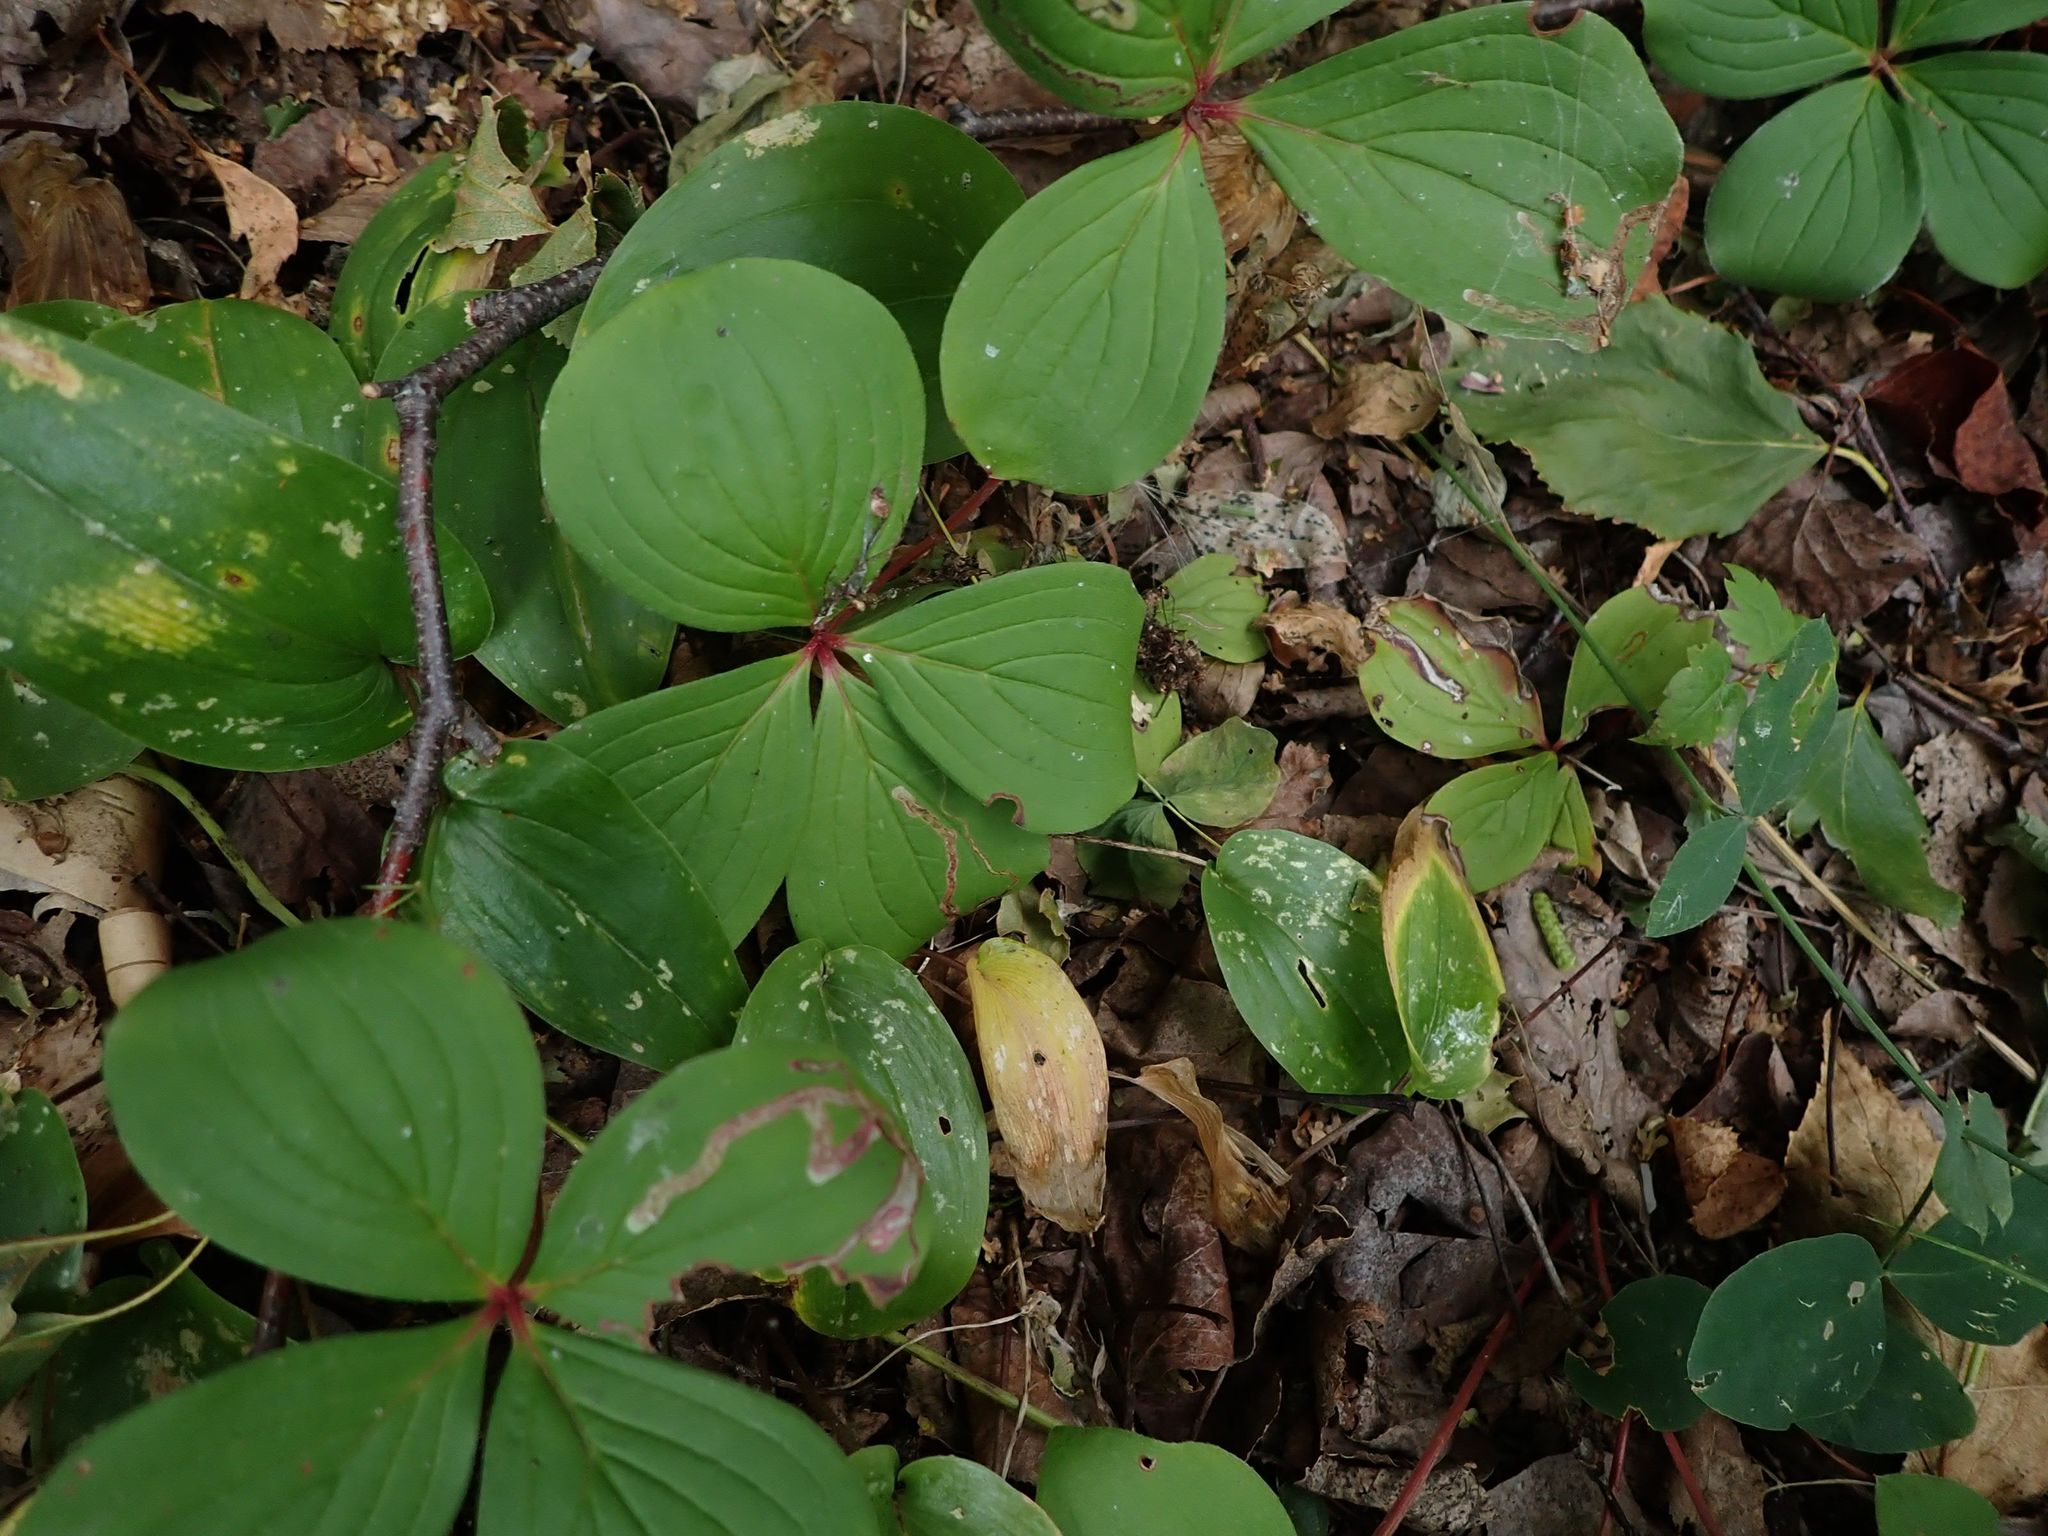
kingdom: Plantae
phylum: Tracheophyta
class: Magnoliopsida
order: Cornales
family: Cornaceae
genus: Cornus
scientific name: Cornus canadensis
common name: Creeping dogwood
